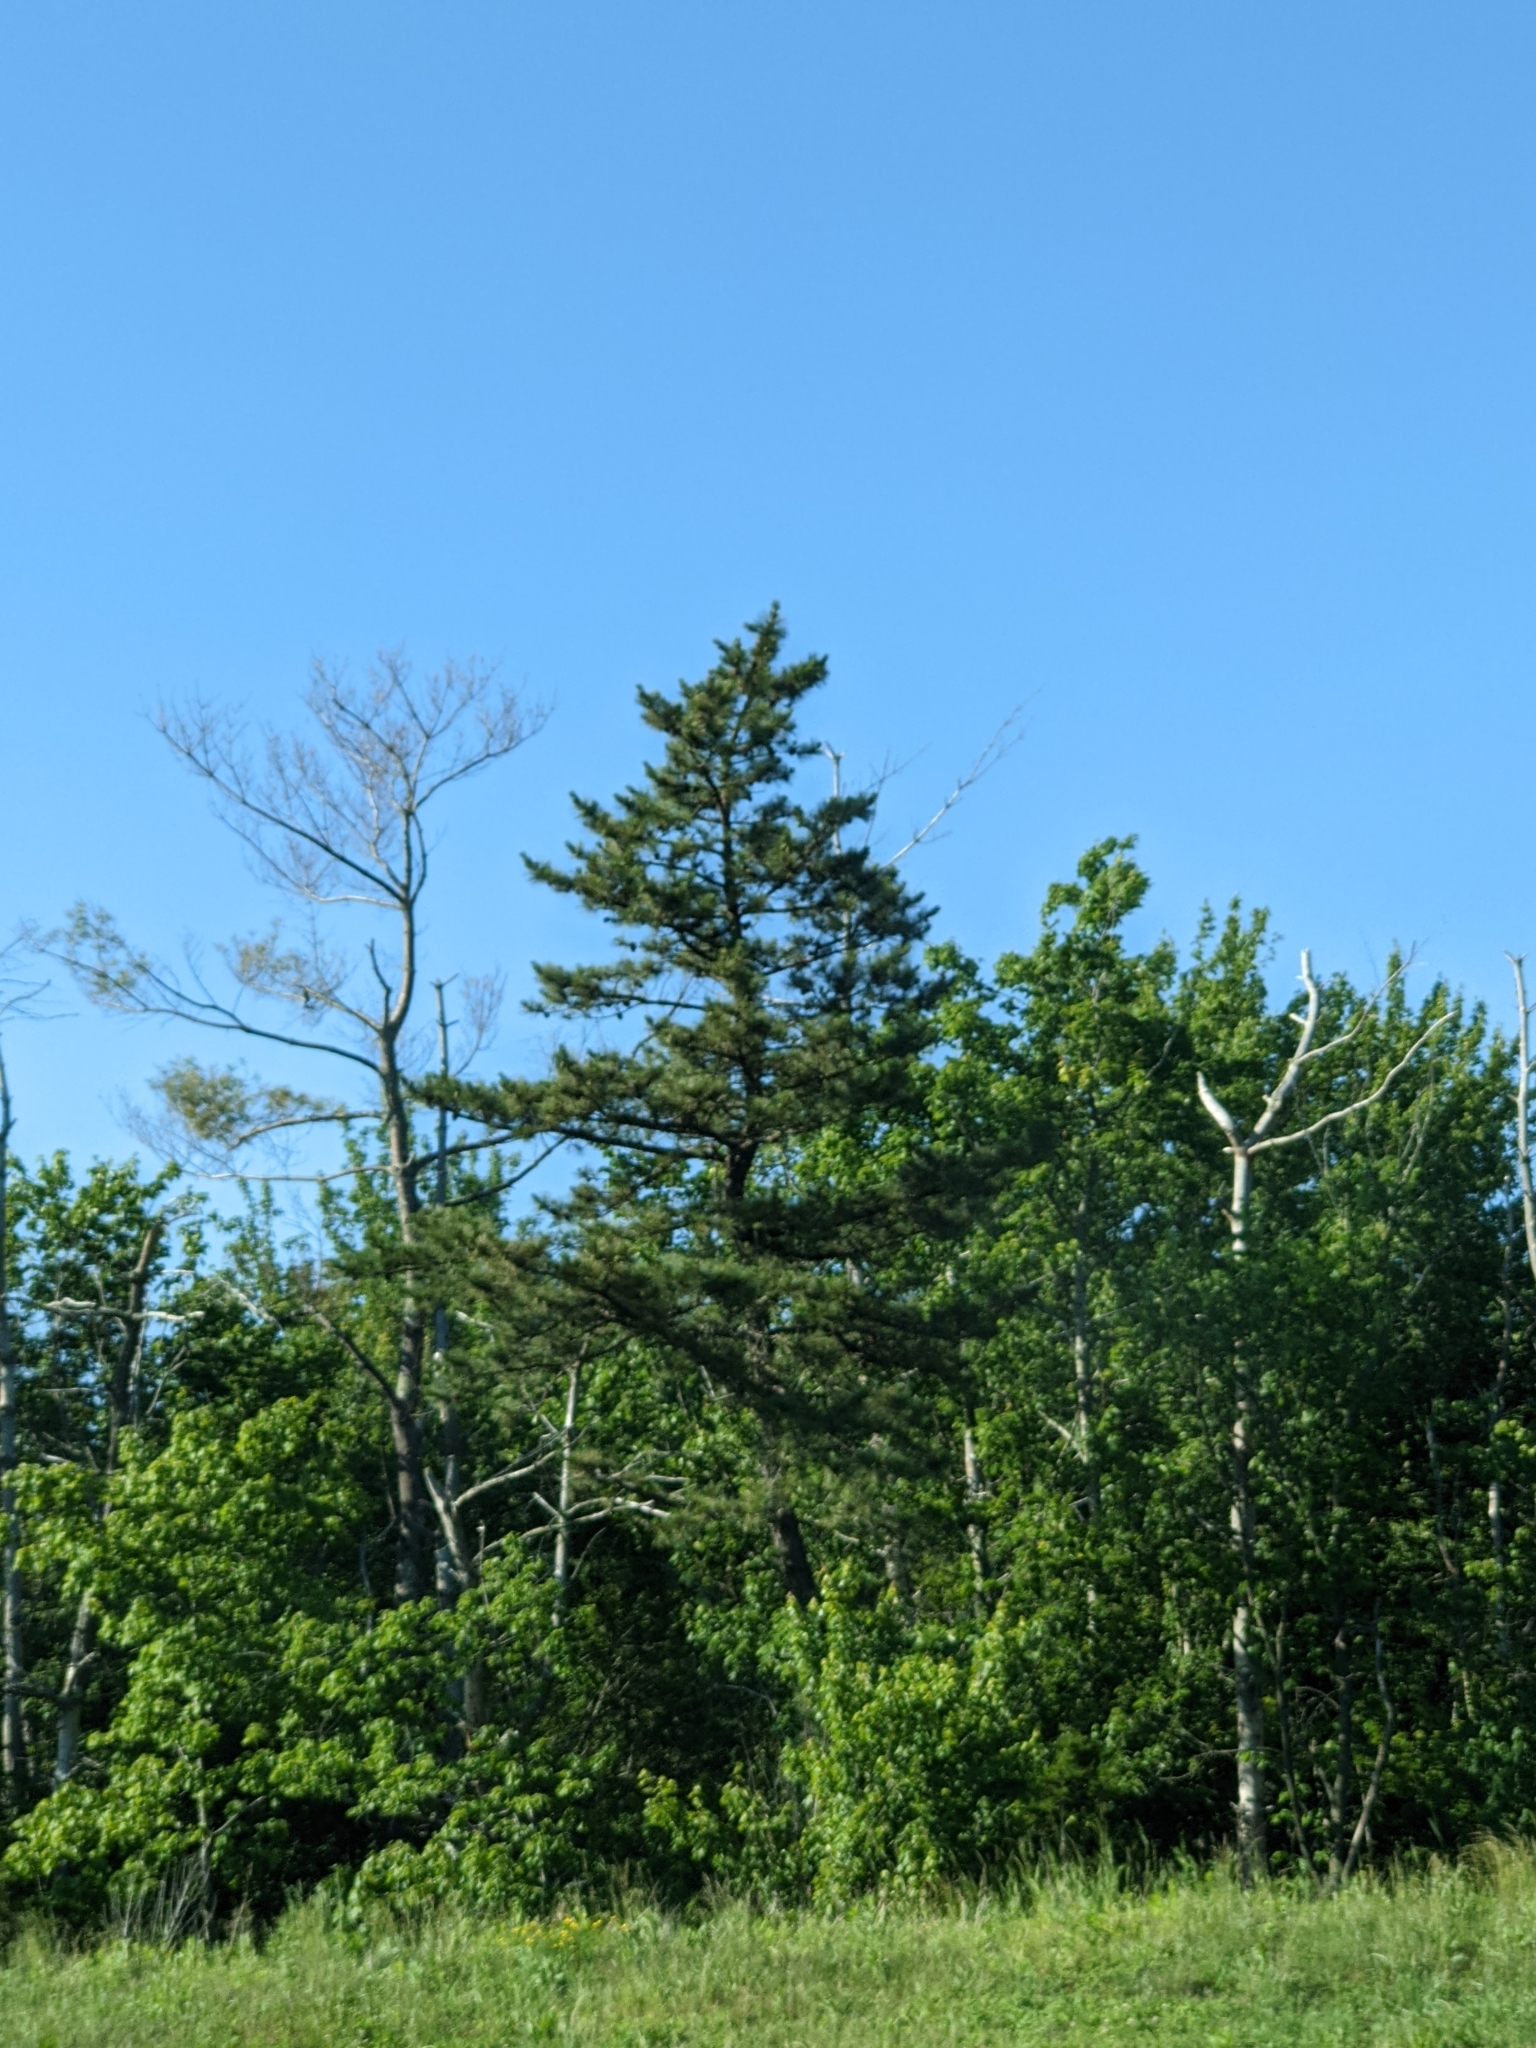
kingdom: Plantae
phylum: Tracheophyta
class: Pinopsida
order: Pinales
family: Pinaceae
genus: Pinus
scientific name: Pinus strobus
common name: Weymouth pine
